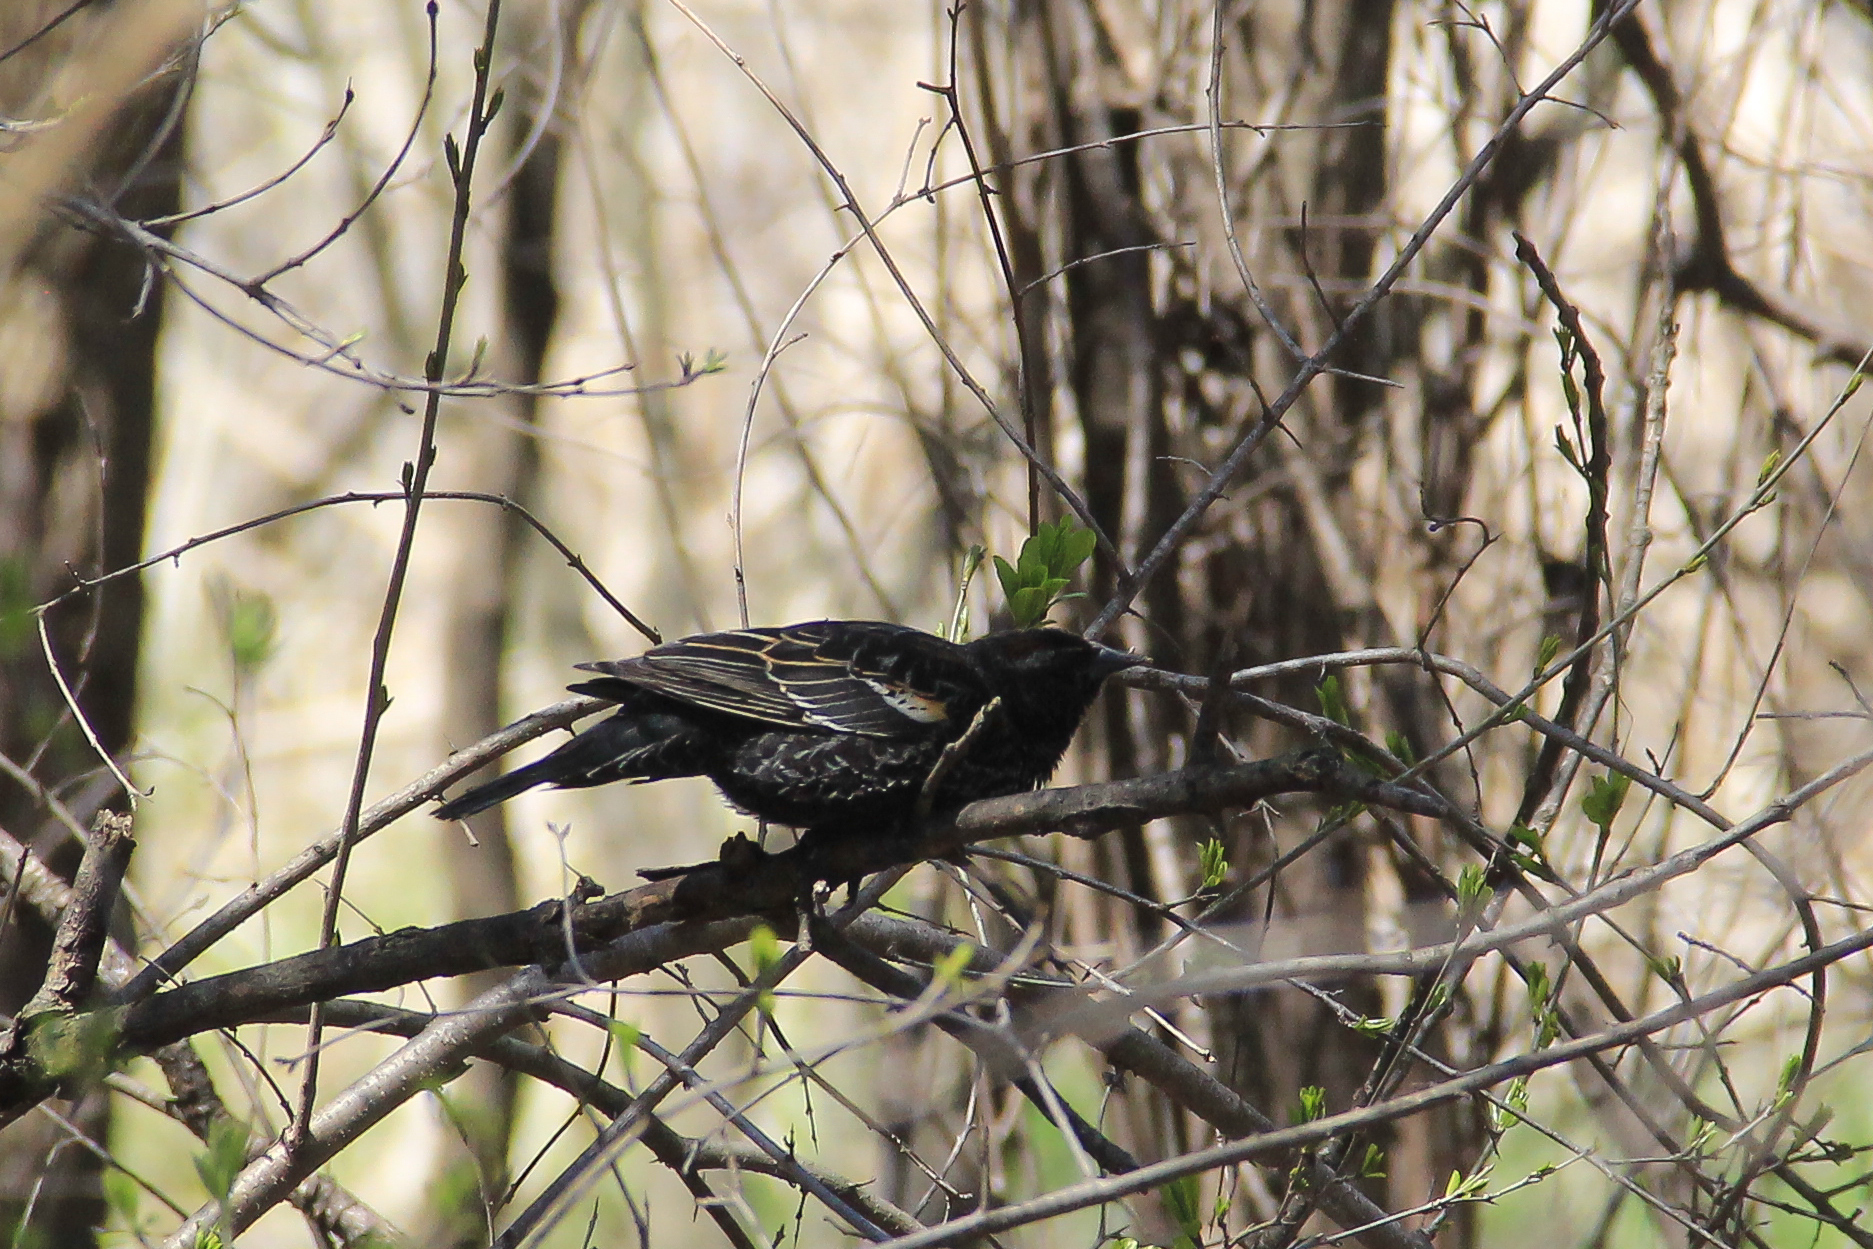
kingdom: Animalia
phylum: Chordata
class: Aves
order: Passeriformes
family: Icteridae
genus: Agelaius
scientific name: Agelaius phoeniceus
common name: Red-winged blackbird
